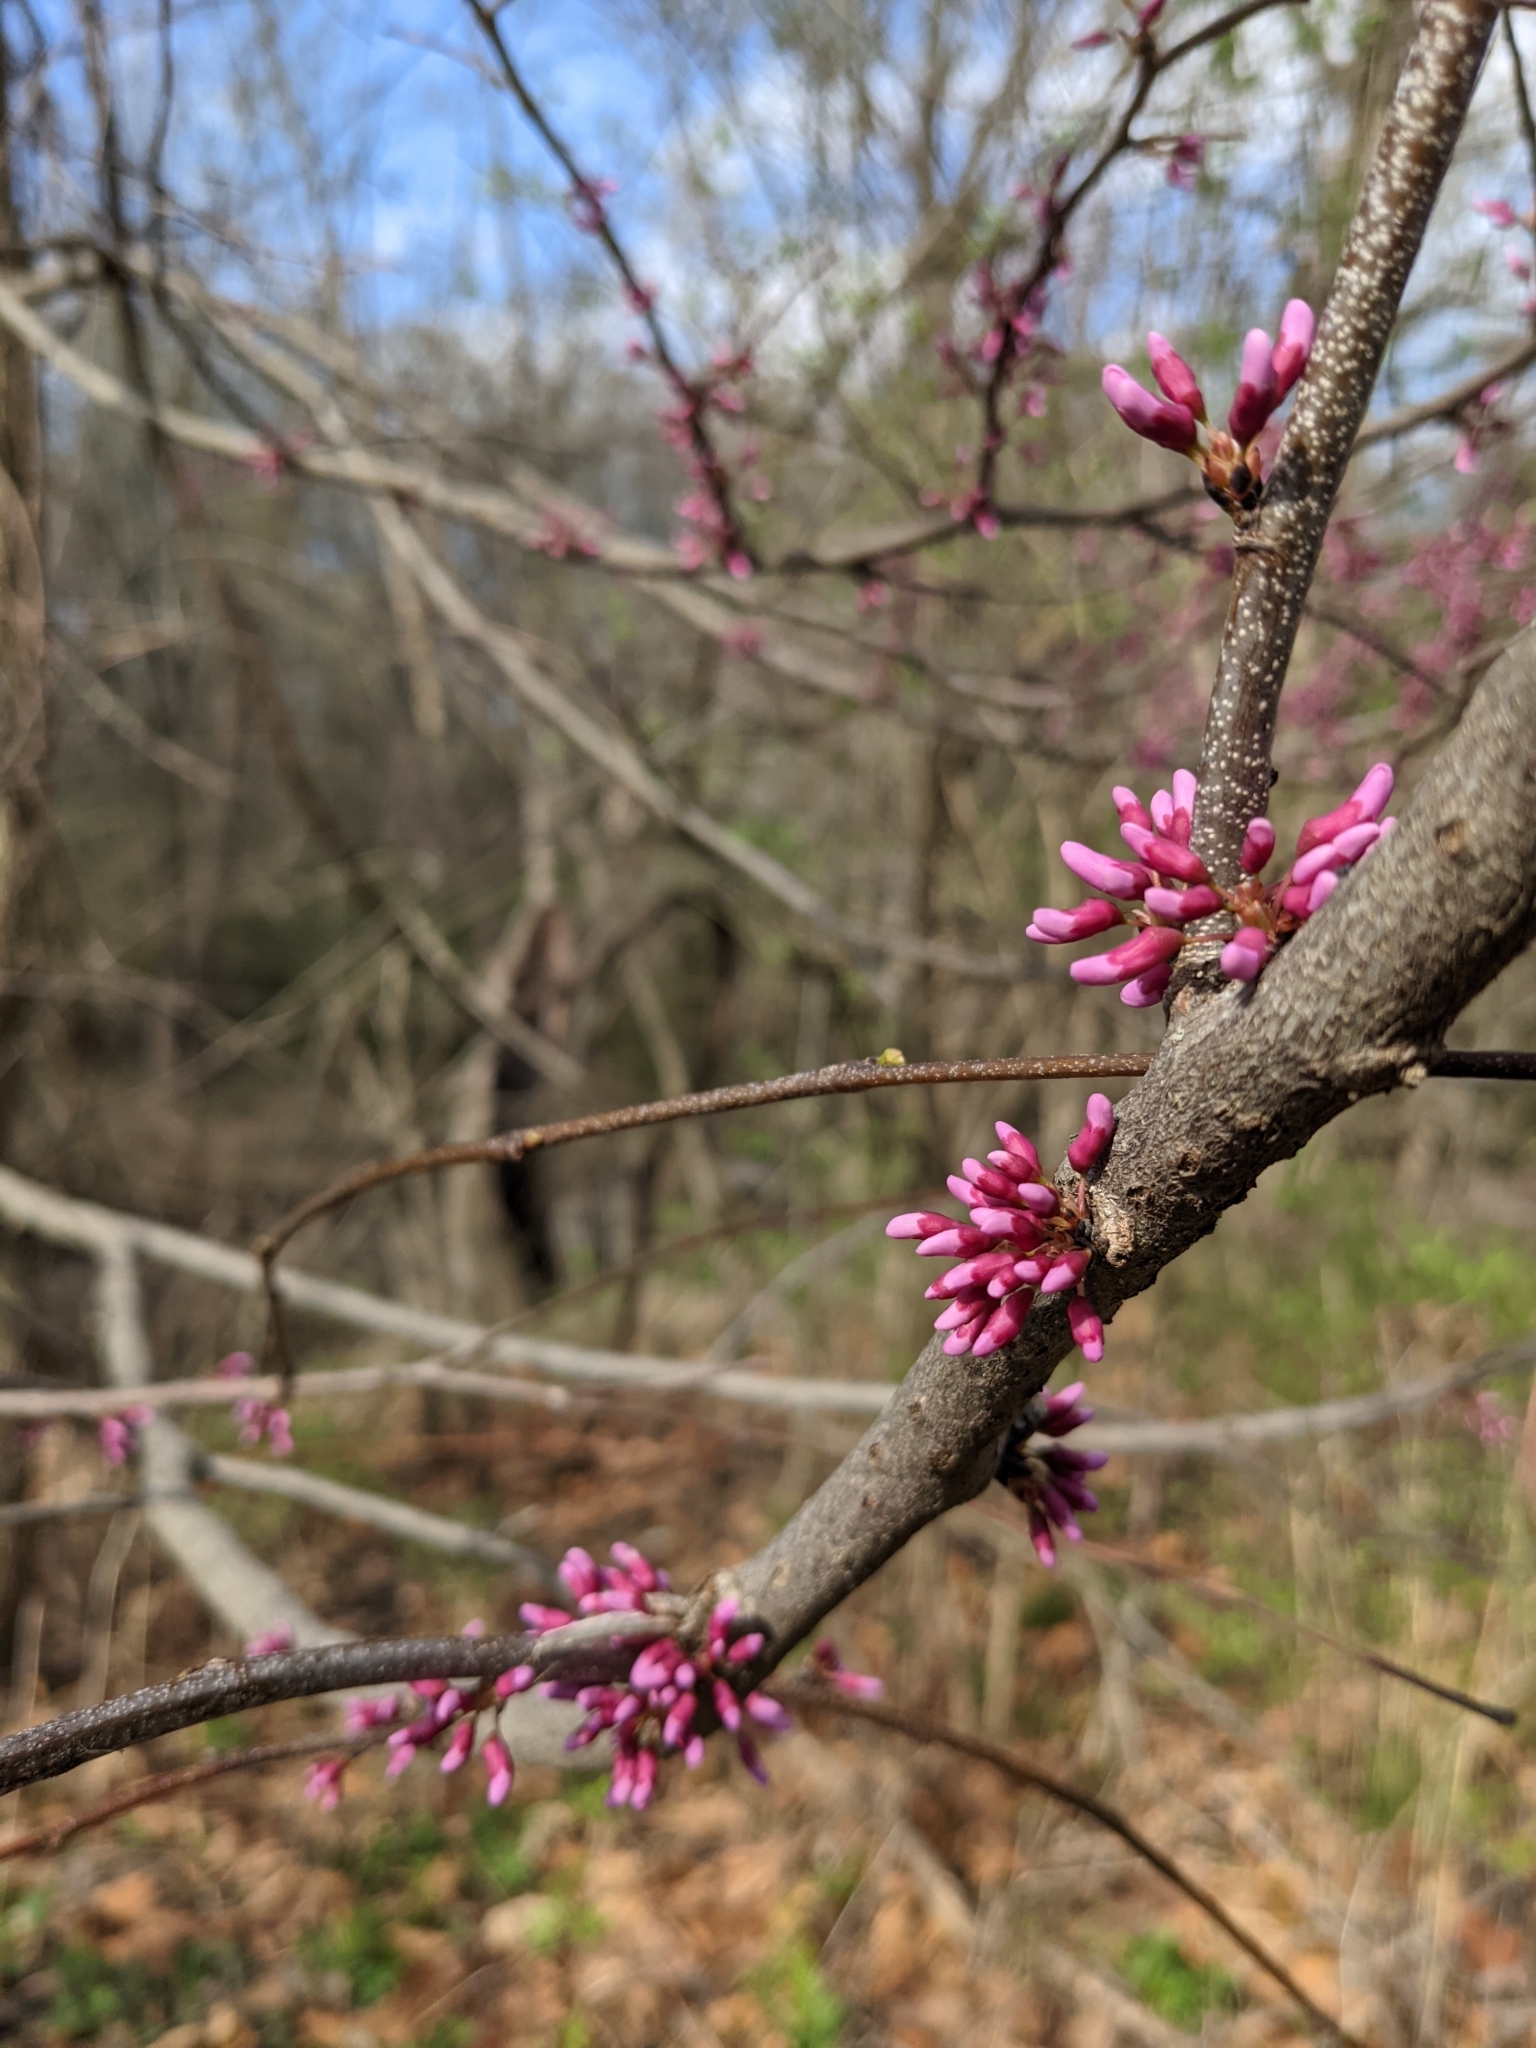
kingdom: Plantae
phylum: Tracheophyta
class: Magnoliopsida
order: Fabales
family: Fabaceae
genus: Cercis
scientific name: Cercis canadensis
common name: Eastern redbud
